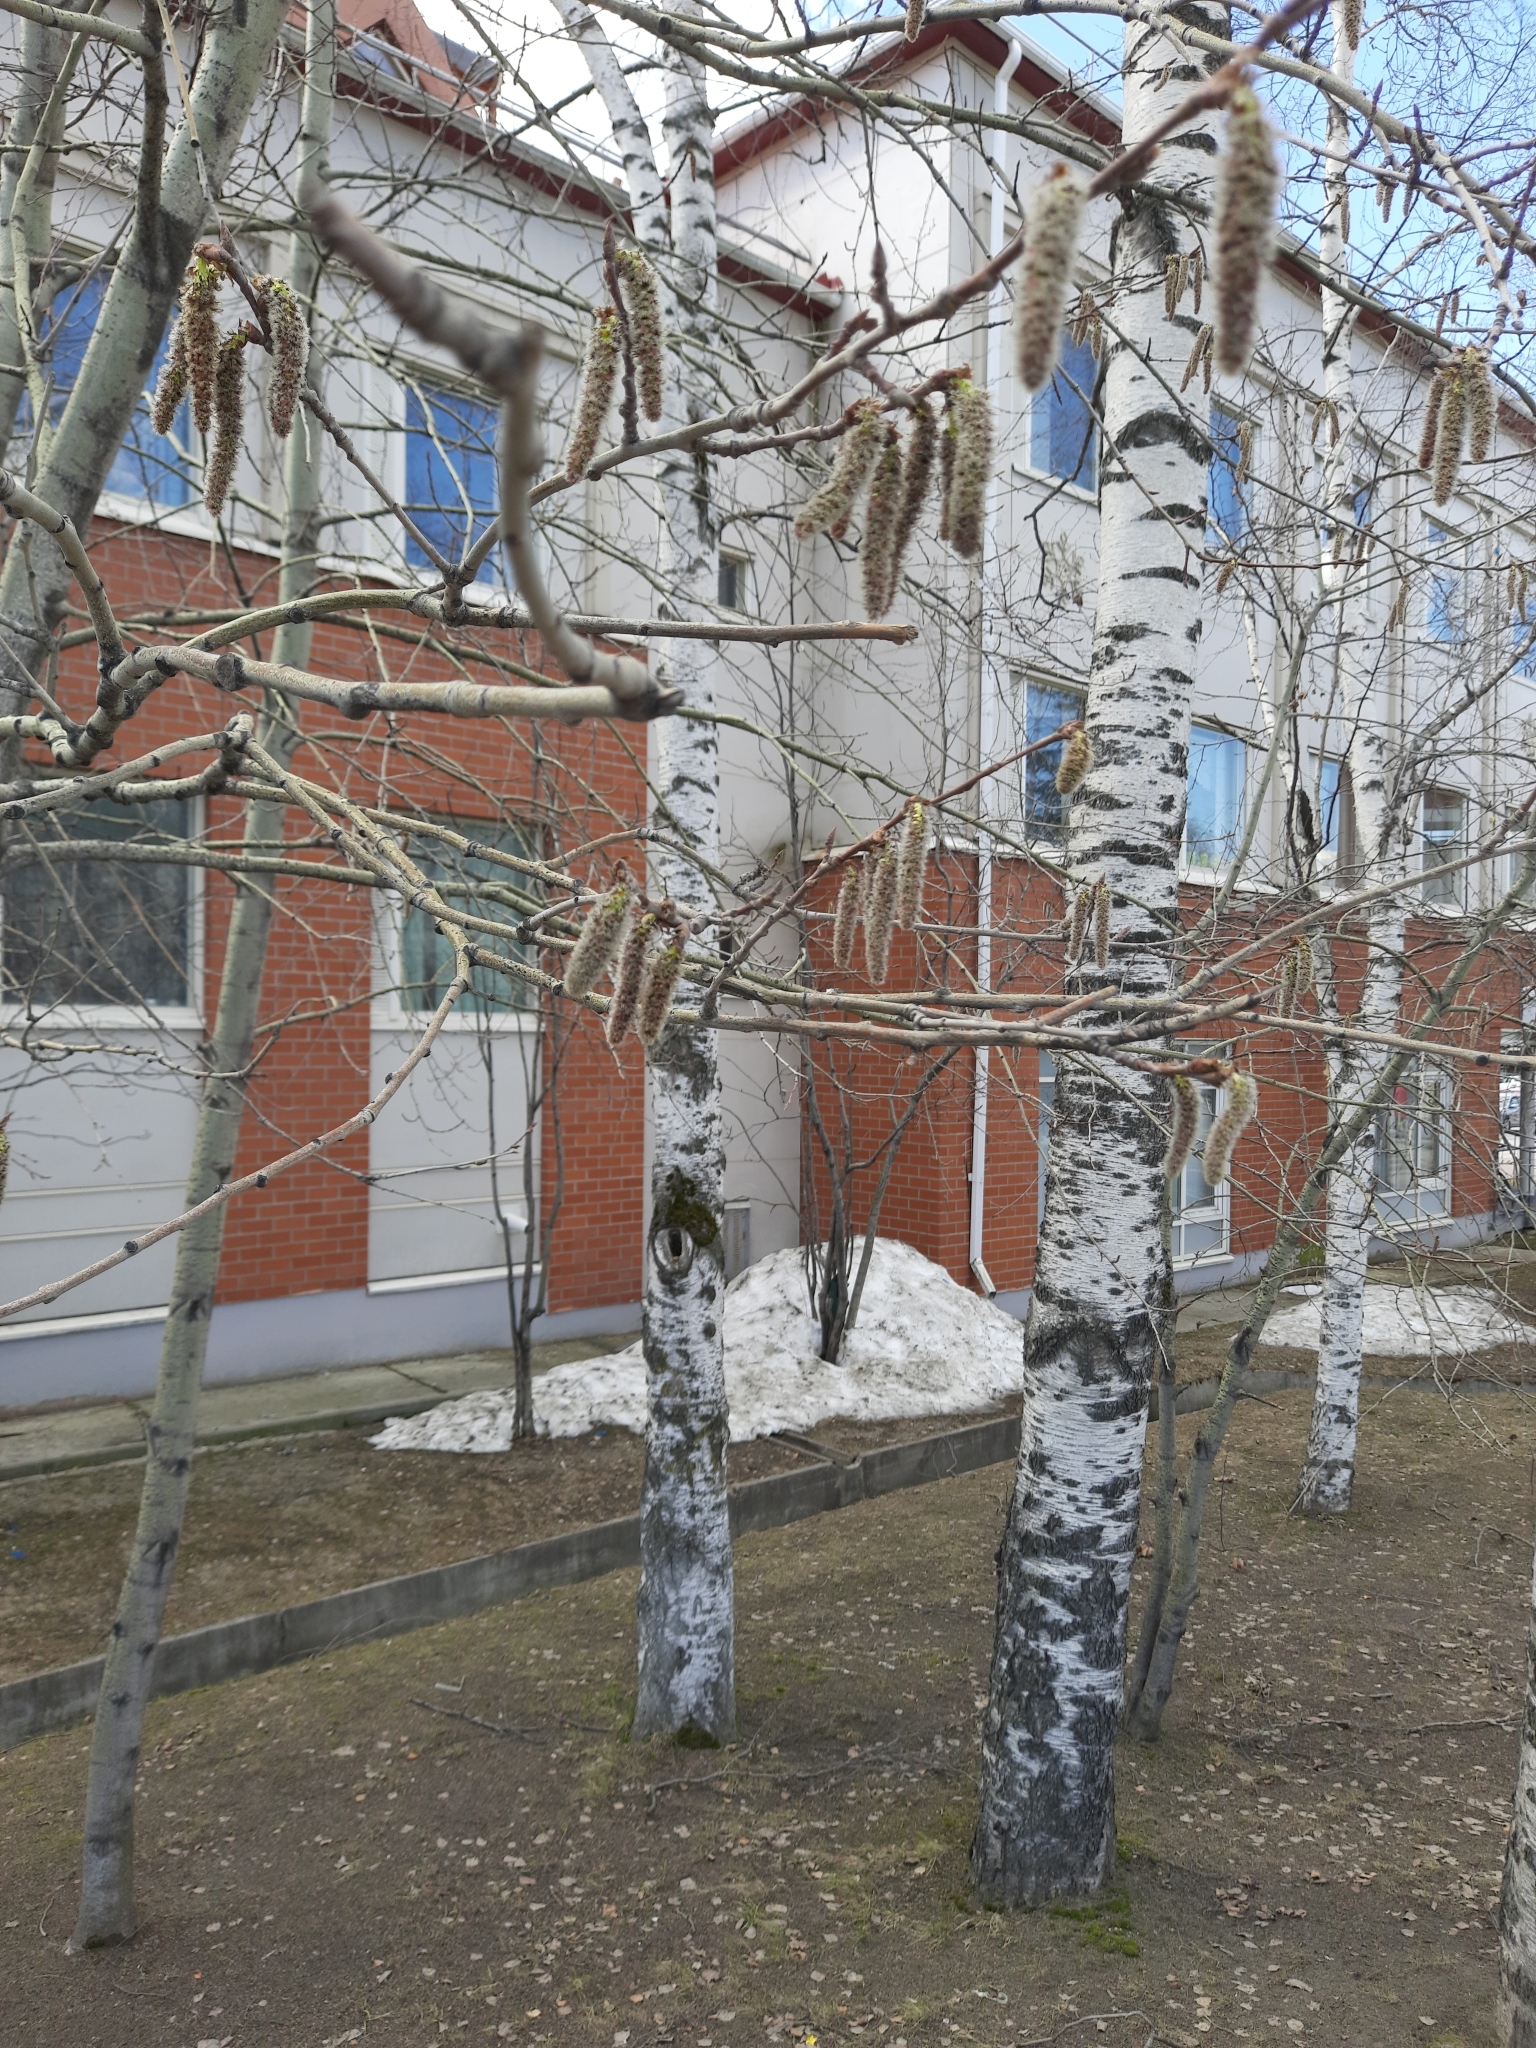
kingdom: Plantae
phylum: Tracheophyta
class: Magnoliopsida
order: Malpighiales
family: Salicaceae
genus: Populus
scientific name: Populus tremula
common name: European aspen
